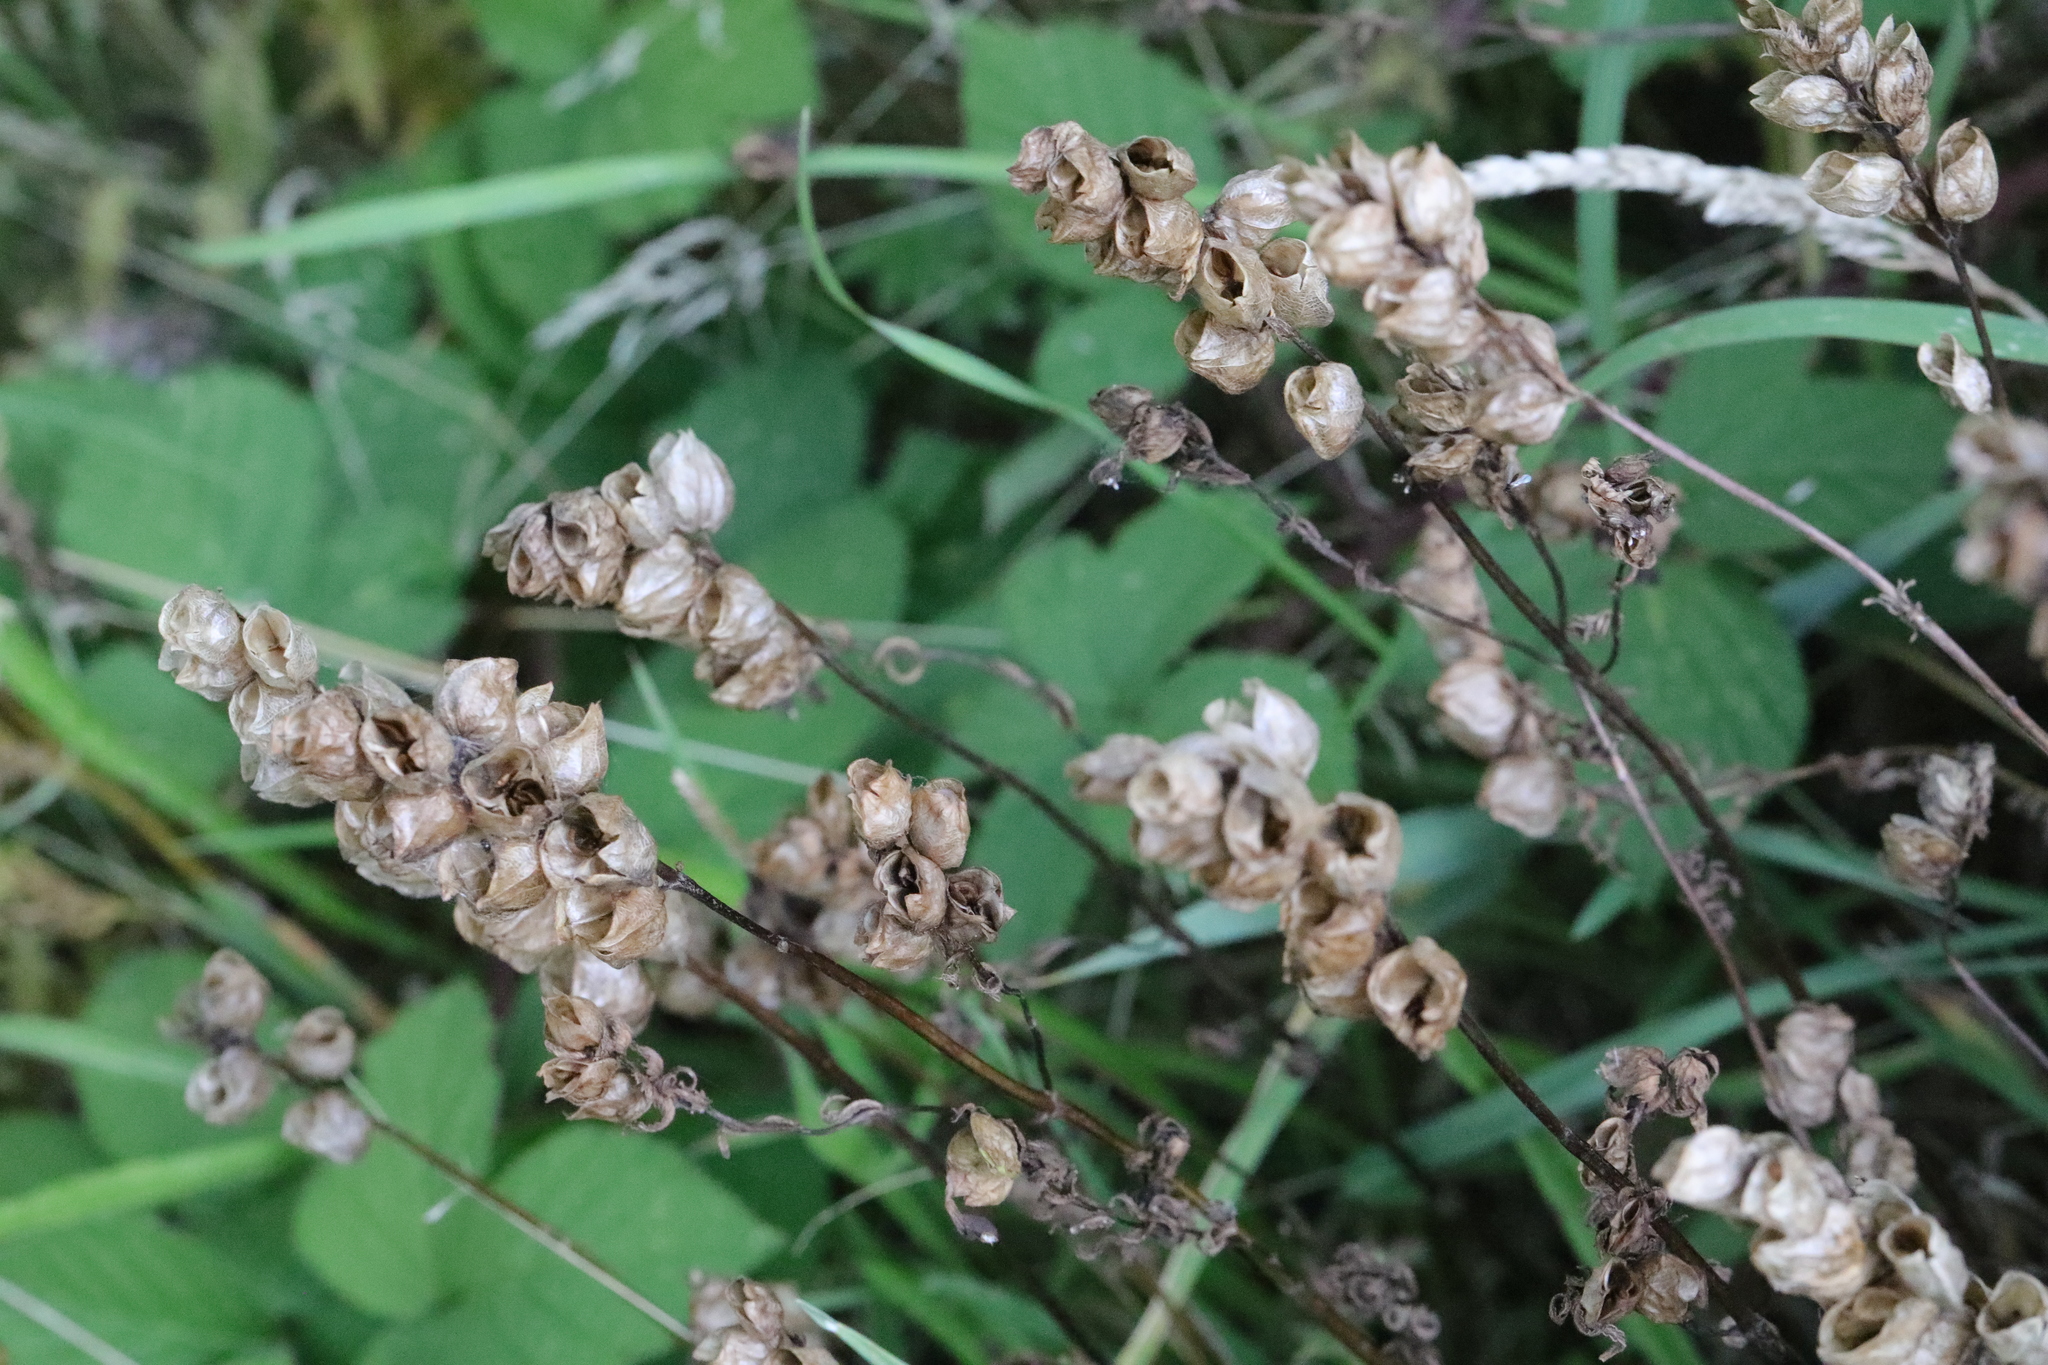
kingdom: Plantae
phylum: Tracheophyta
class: Magnoliopsida
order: Lamiales
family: Orobanchaceae
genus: Rhinanthus
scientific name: Rhinanthus minor
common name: Yellow-rattle
